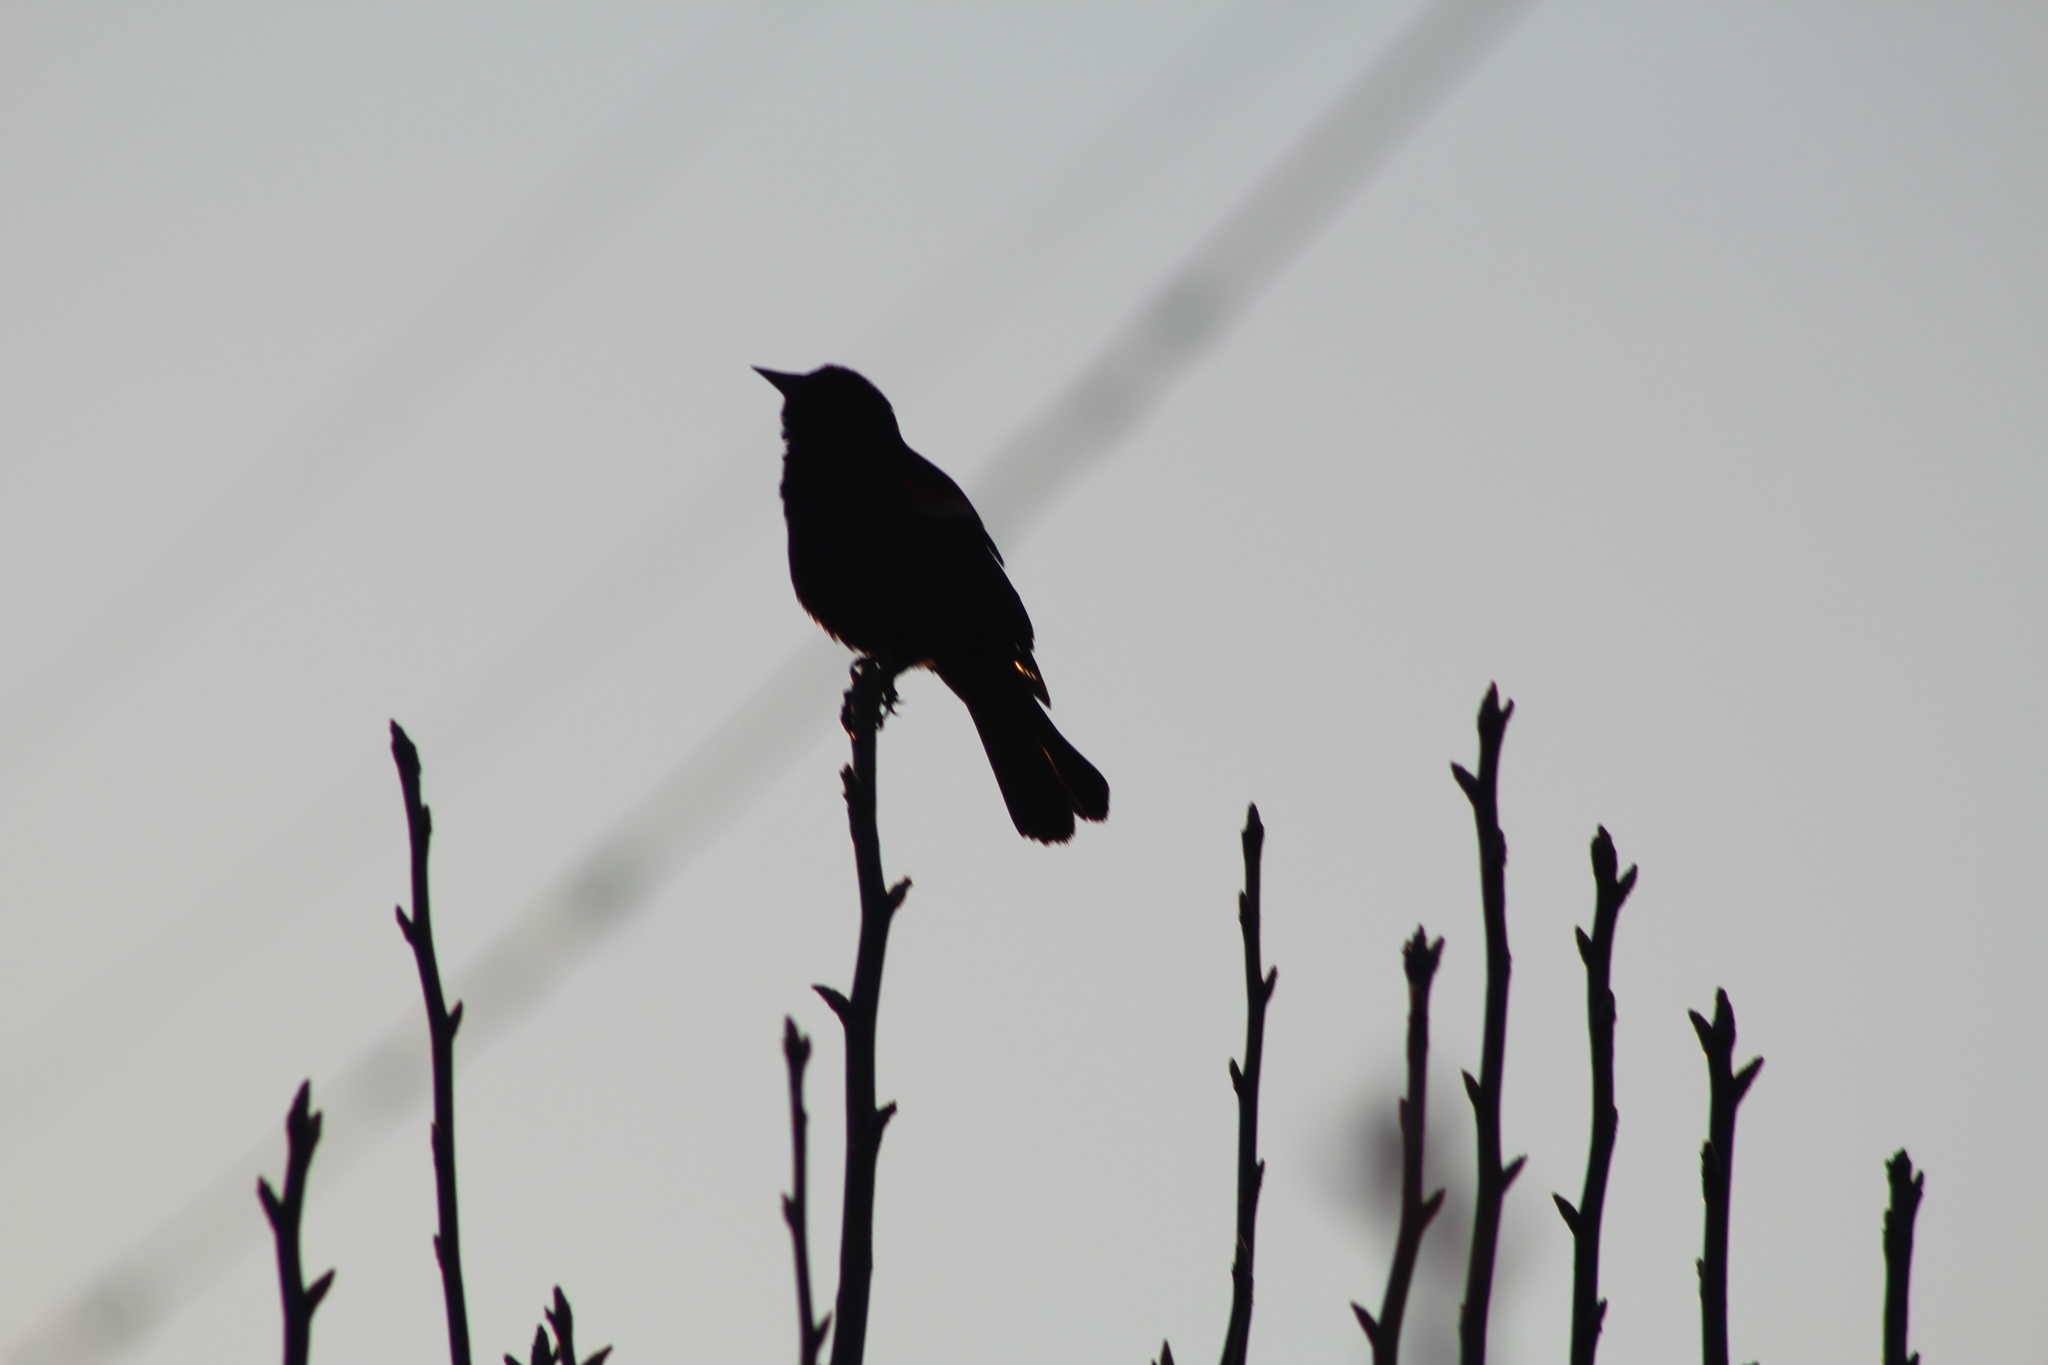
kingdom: Animalia
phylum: Chordata
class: Aves
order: Passeriformes
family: Icteridae
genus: Agelaius
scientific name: Agelaius phoeniceus
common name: Red-winged blackbird
